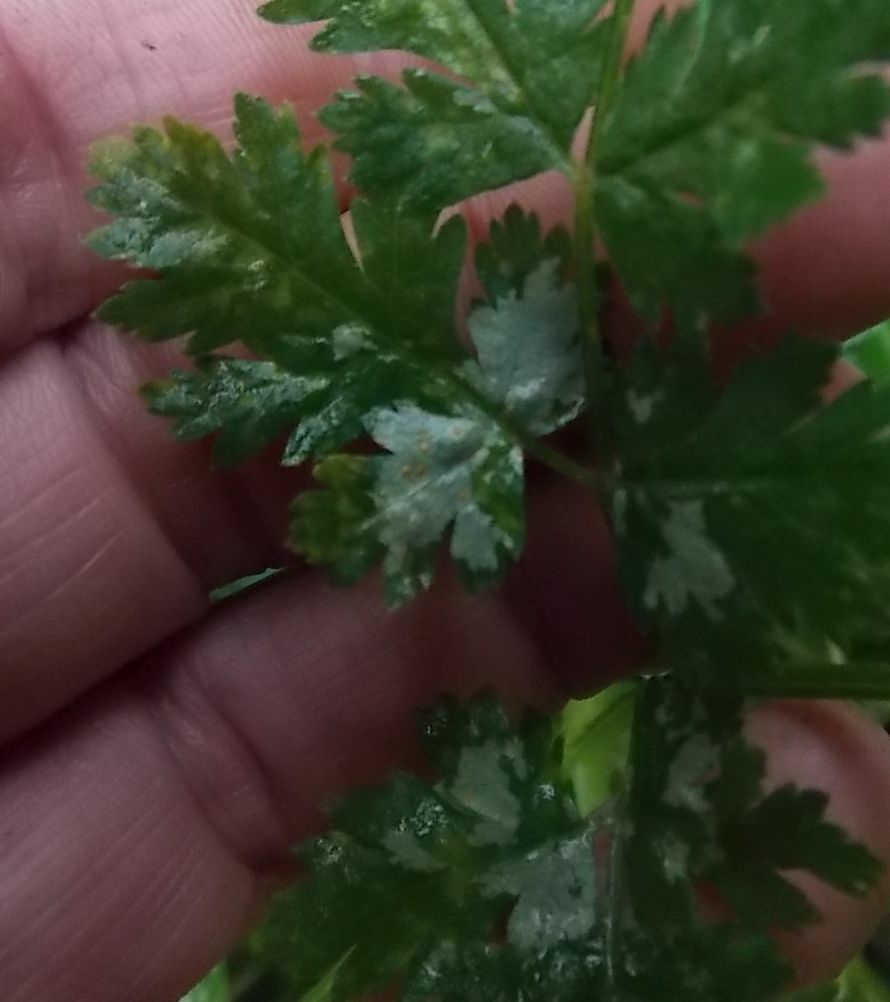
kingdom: Fungi
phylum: Ascomycota
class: Leotiomycetes
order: Helotiales
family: Erysiphaceae
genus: Erysiphe
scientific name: Erysiphe heraclei
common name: Umbellifer mildew
